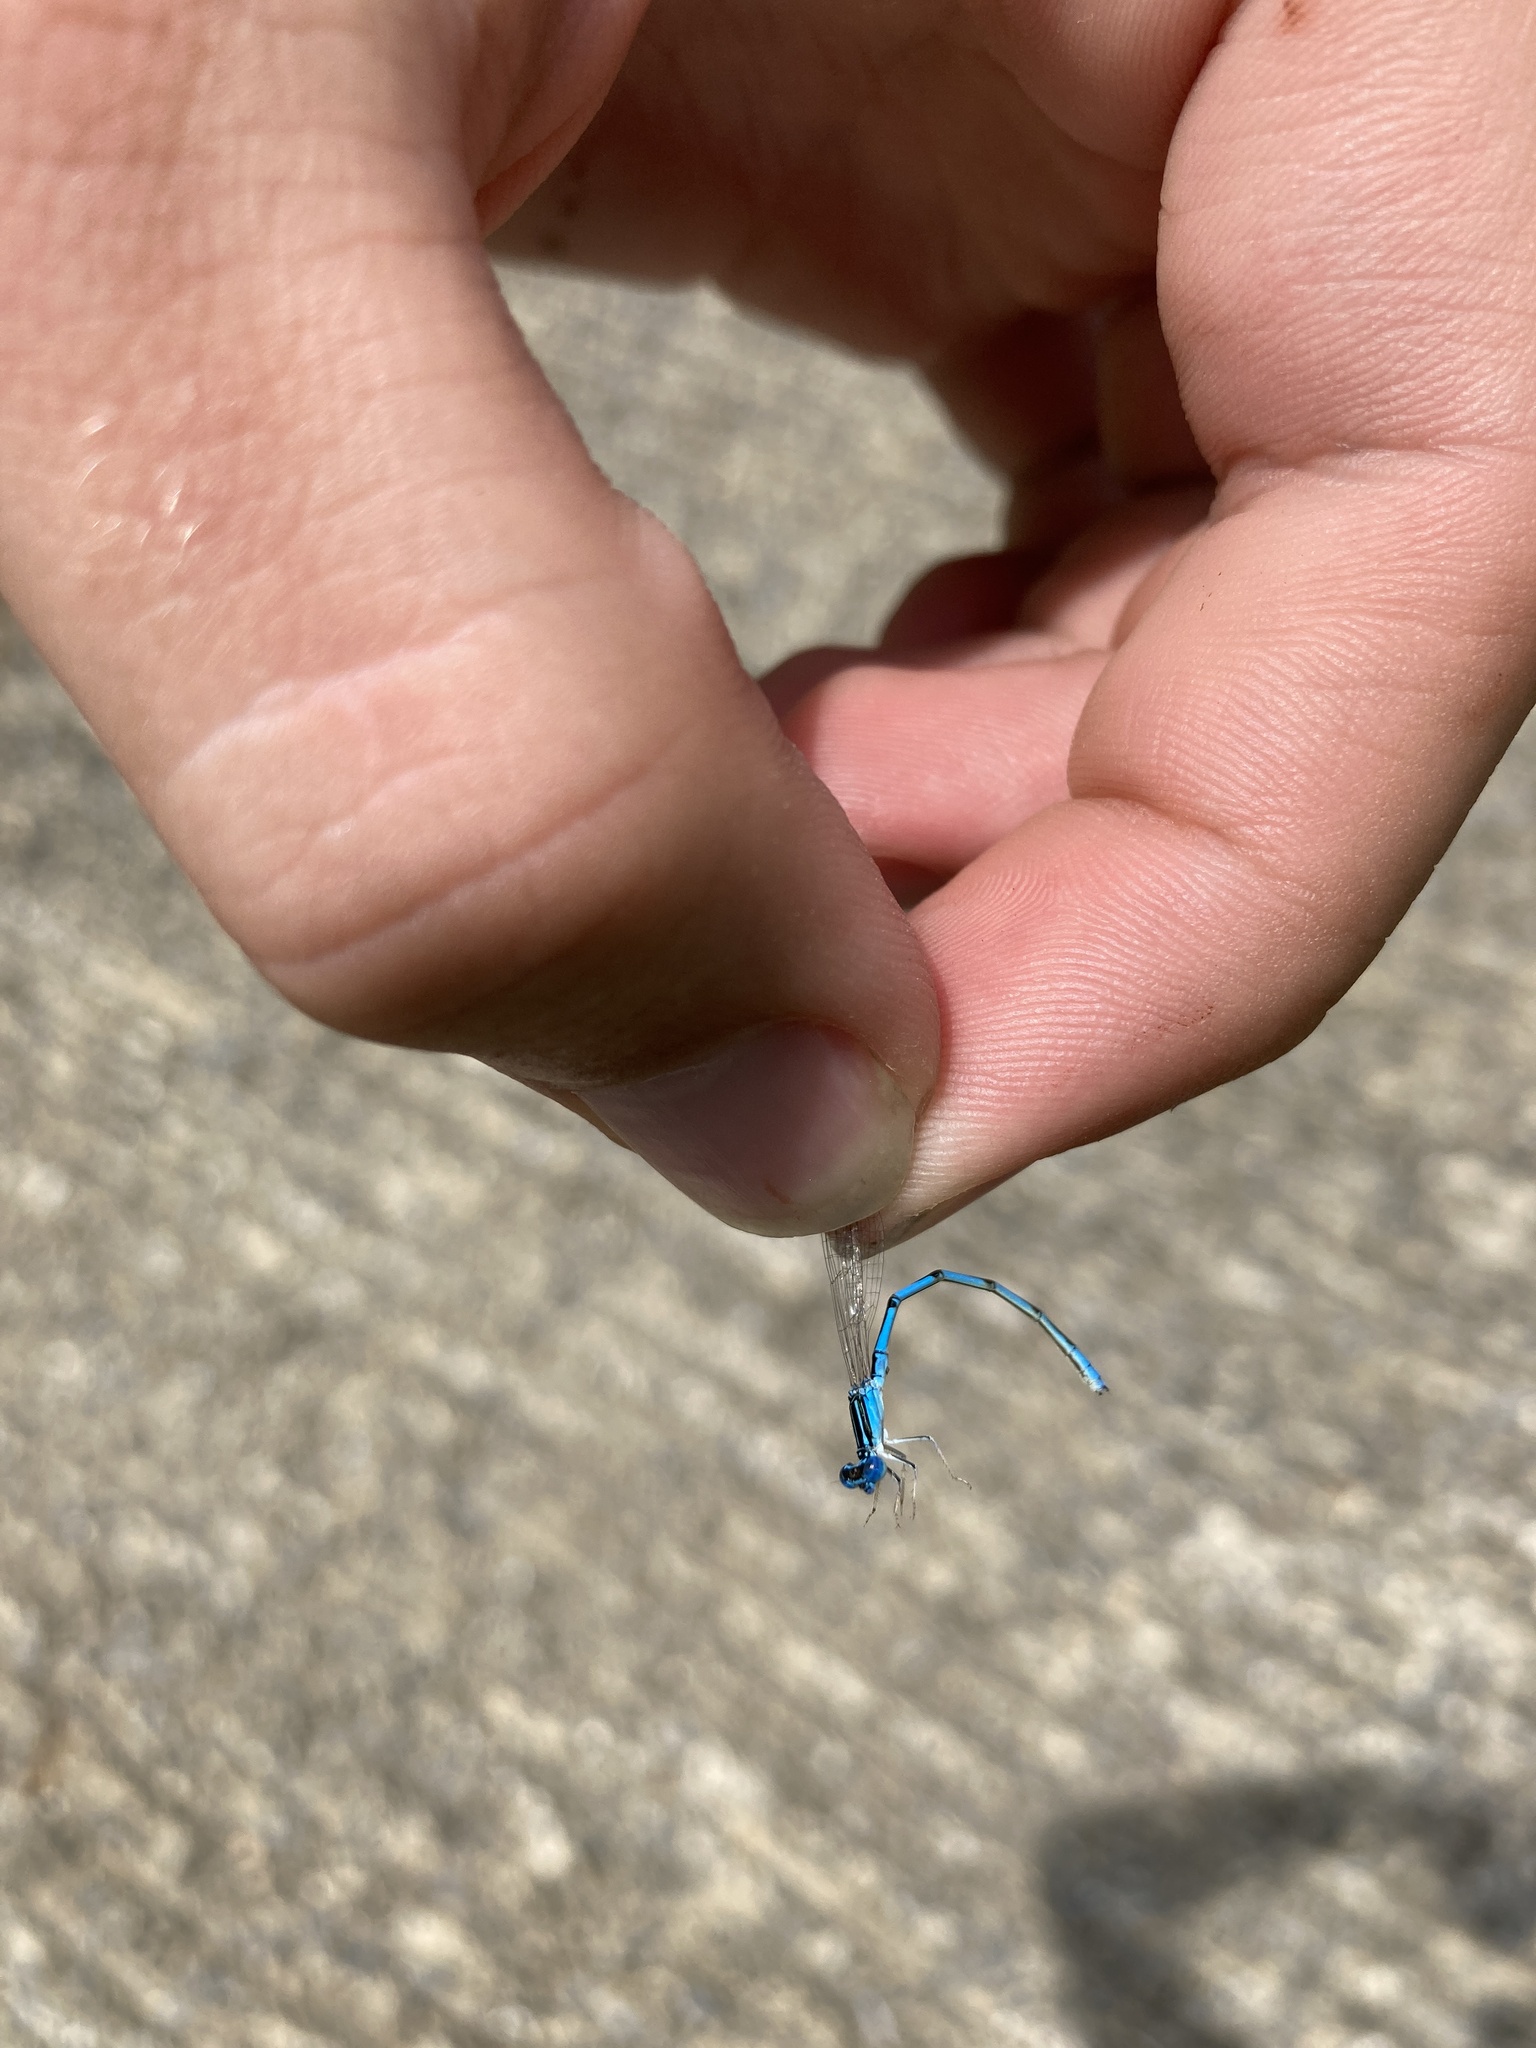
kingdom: Animalia
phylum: Arthropoda
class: Insecta
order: Odonata
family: Coenagrionidae
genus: Enallagma
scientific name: Enallagma durum
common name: Big bluet
